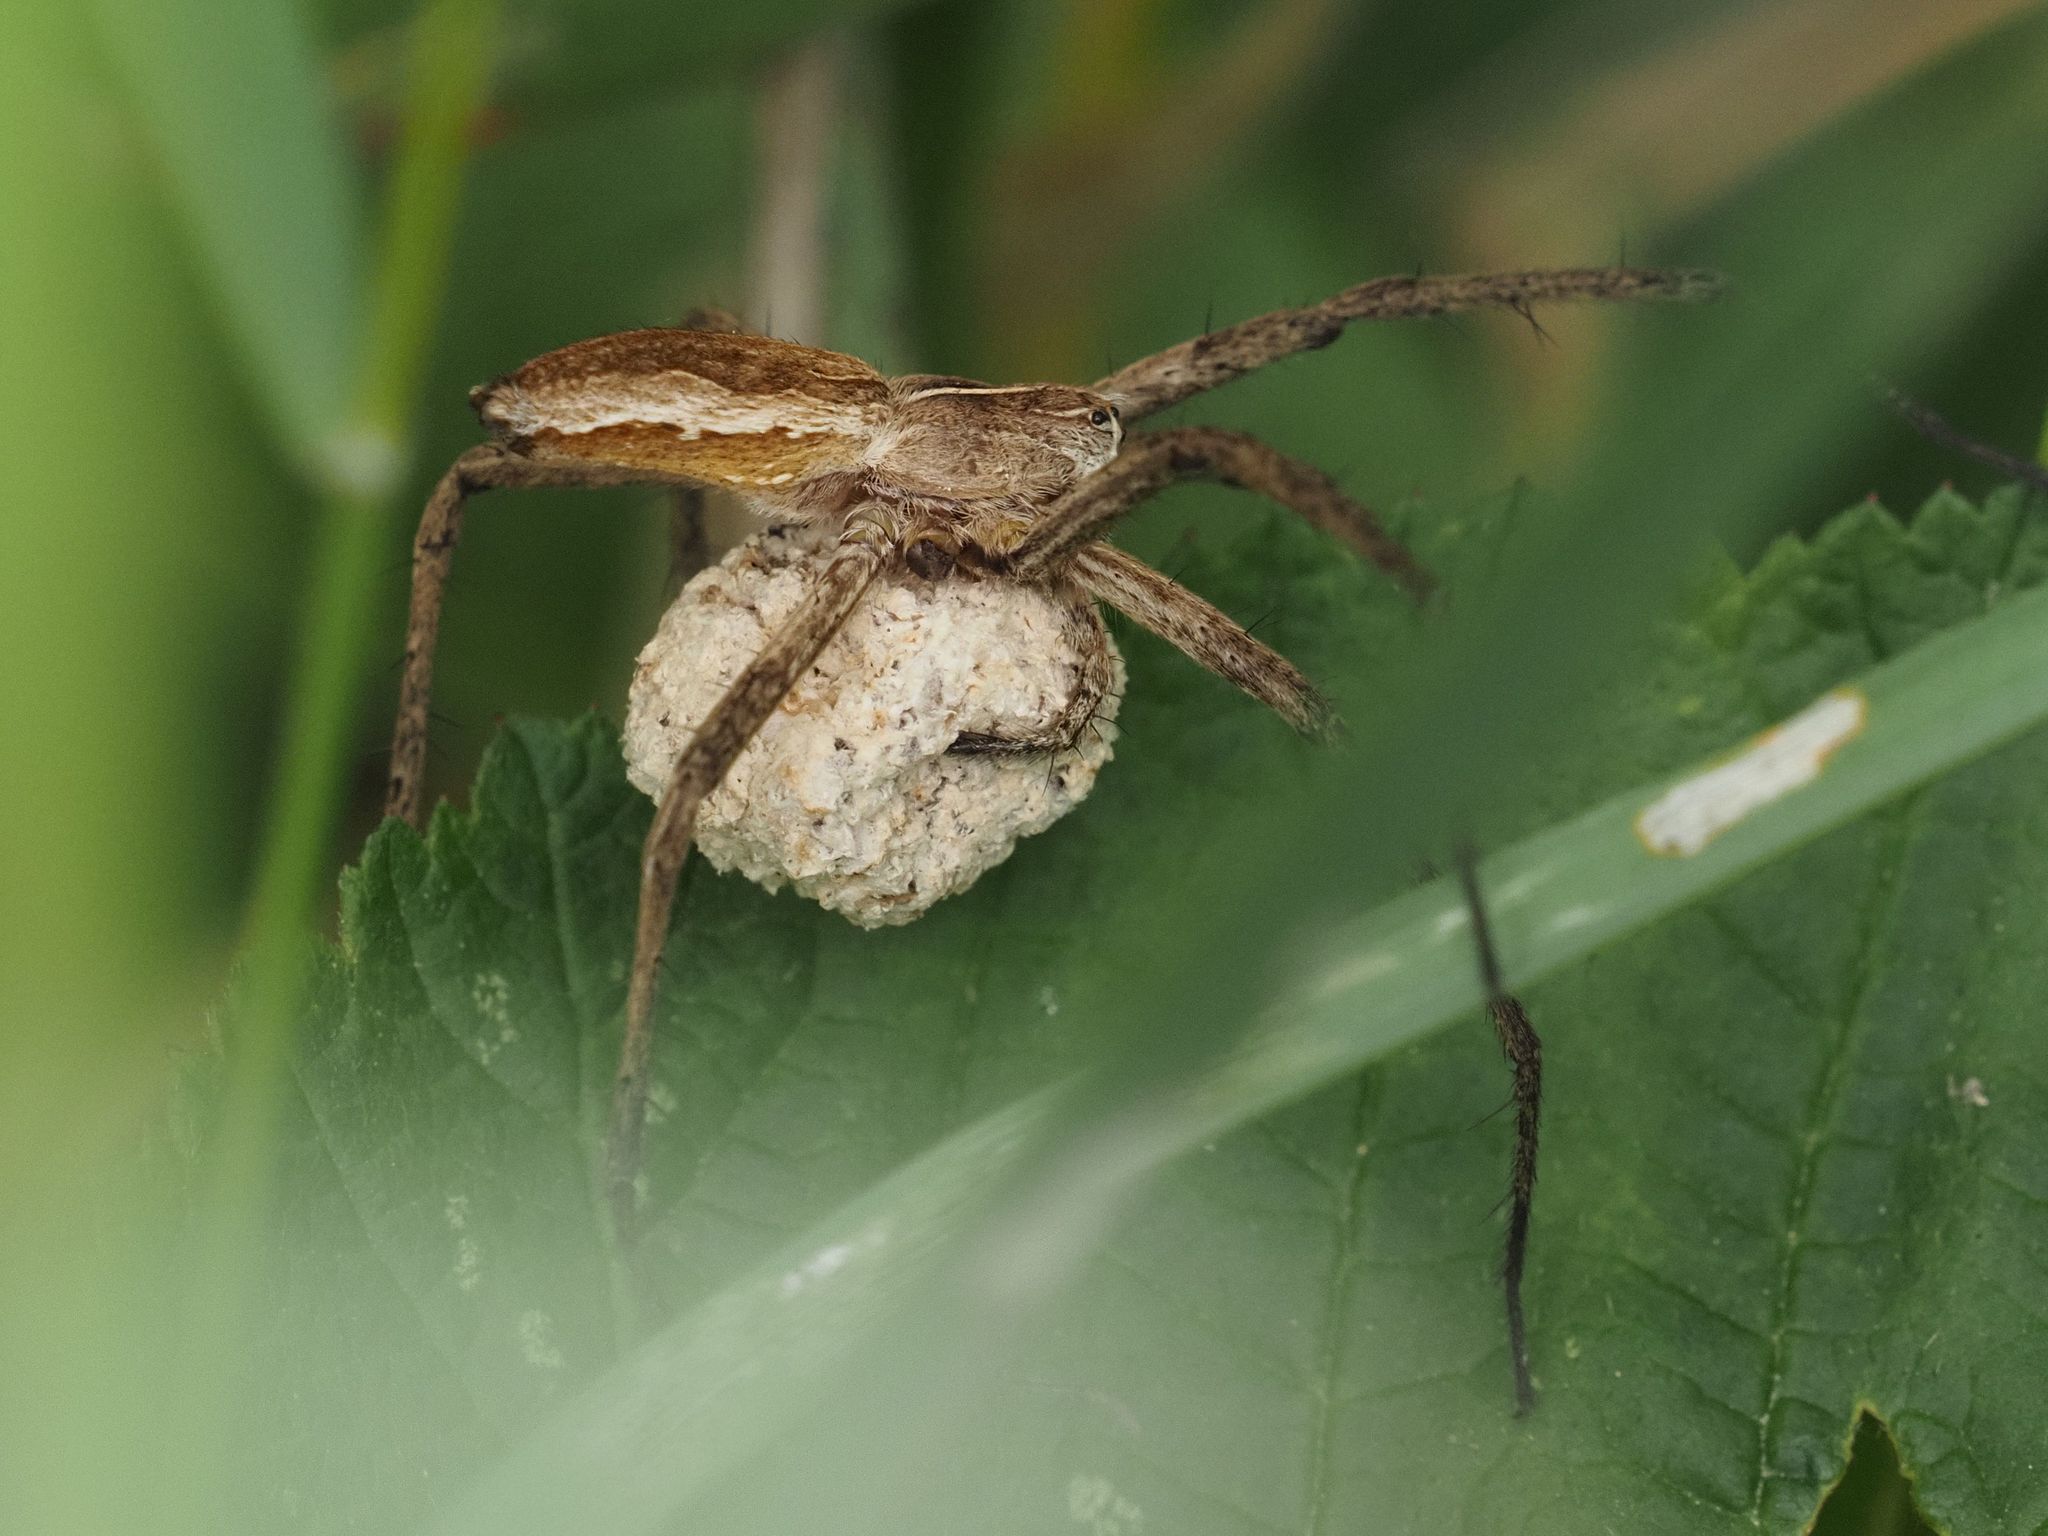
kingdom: Animalia
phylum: Arthropoda
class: Arachnida
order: Araneae
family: Pisauridae
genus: Pisaura
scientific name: Pisaura mirabilis
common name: Tent spider
